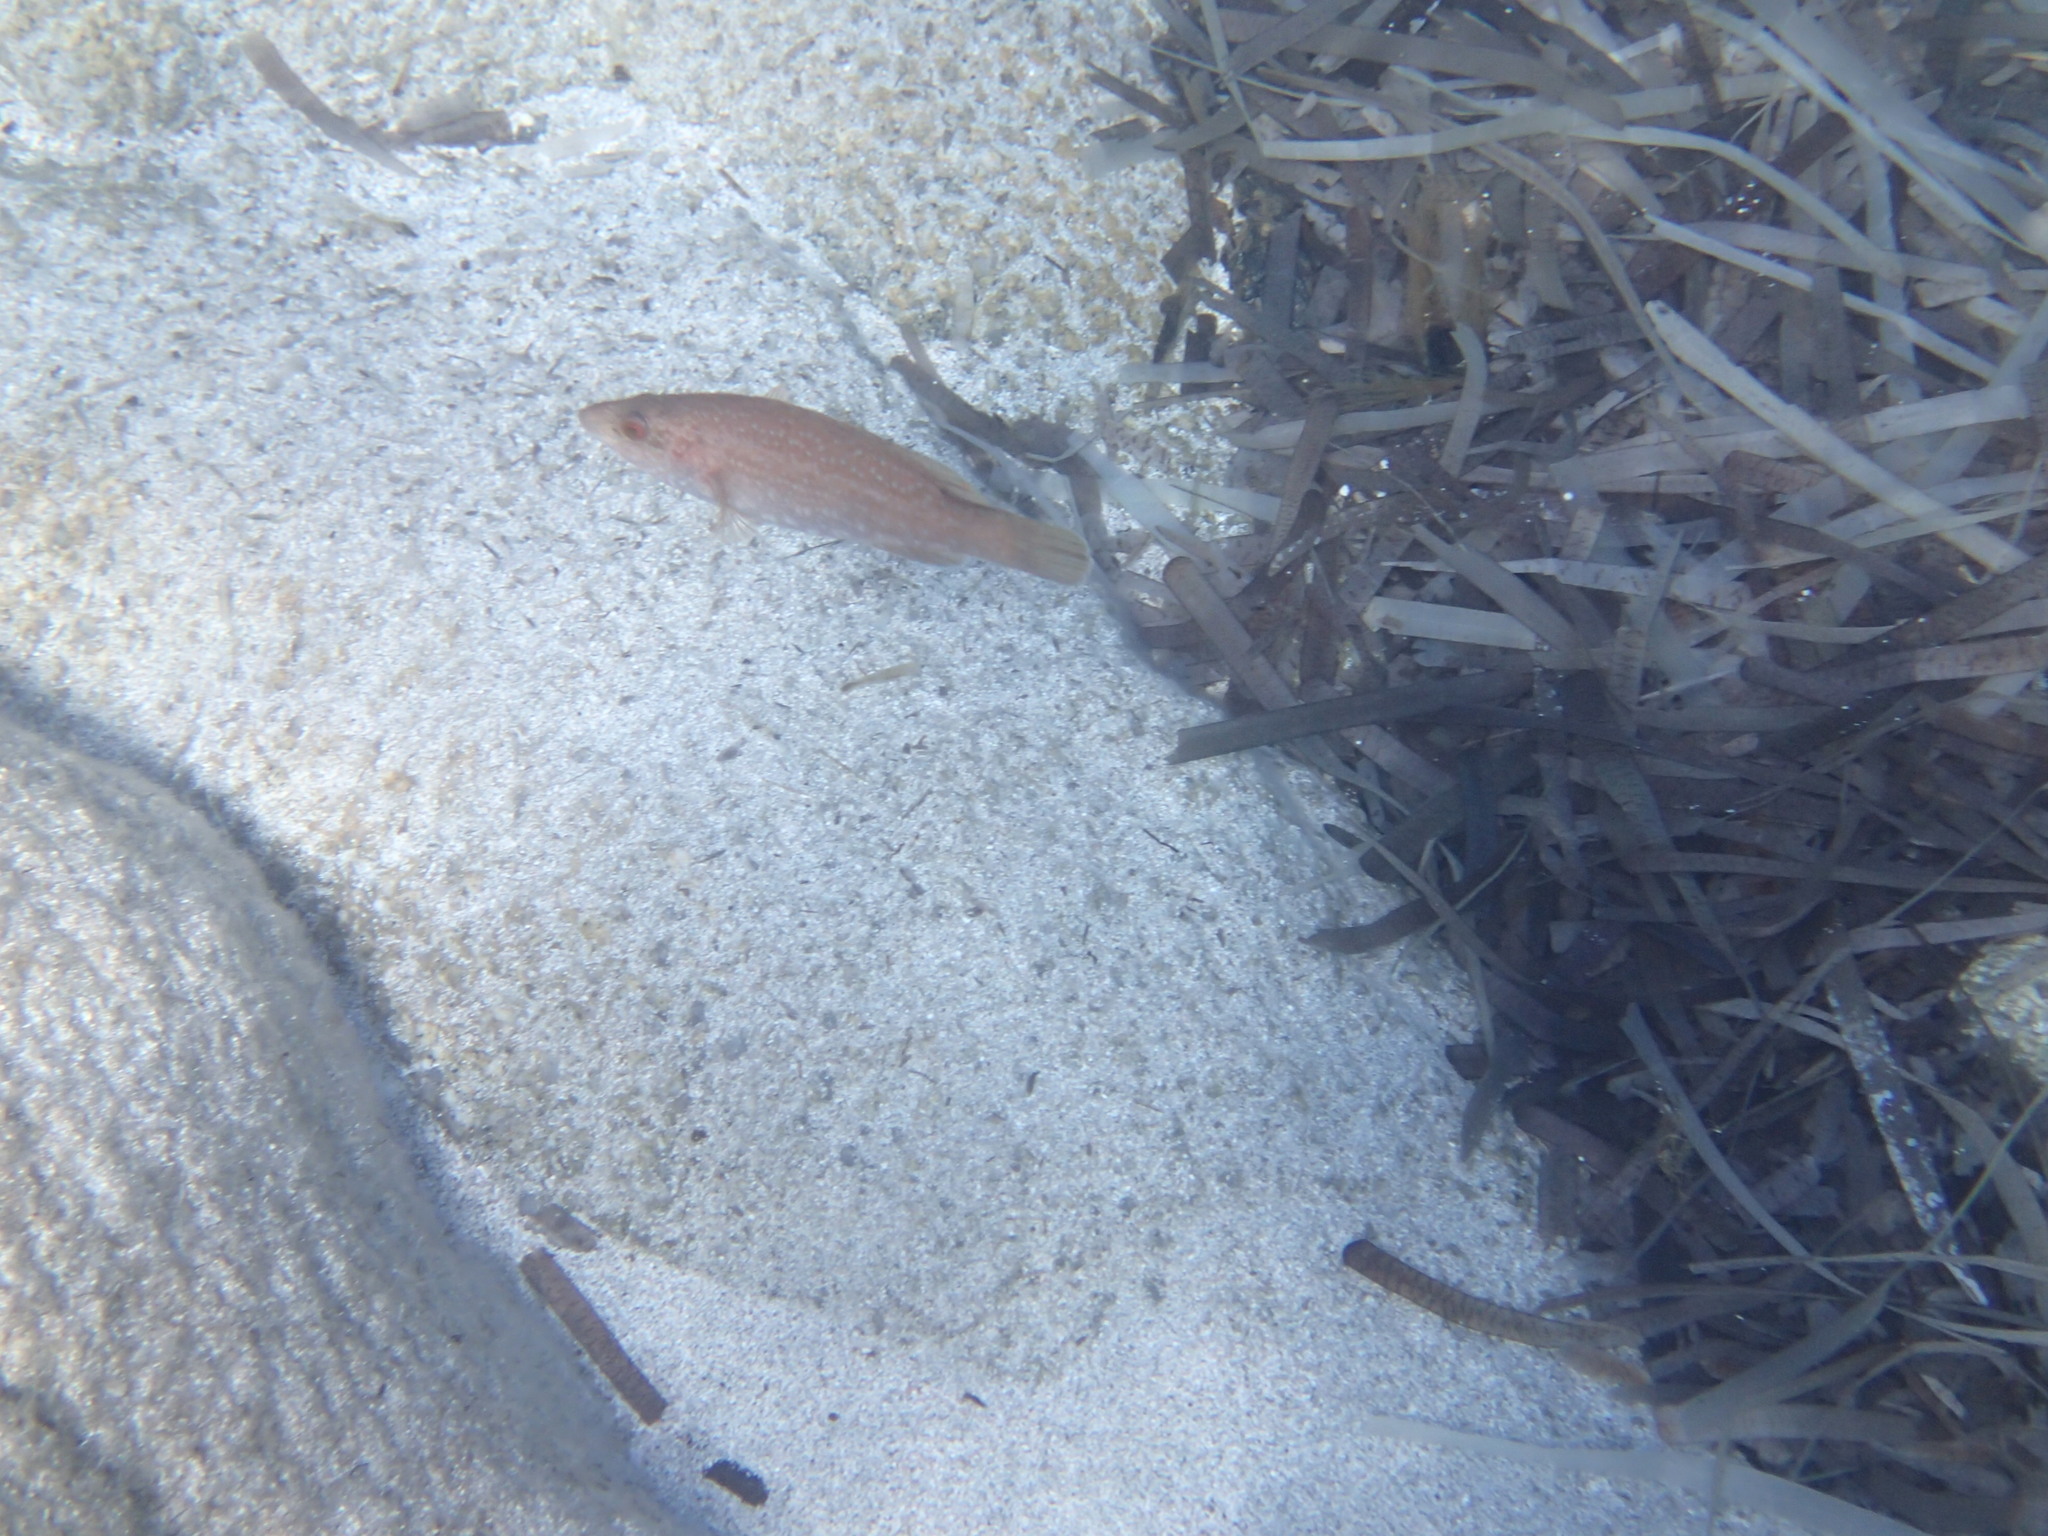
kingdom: Animalia
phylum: Chordata
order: Perciformes
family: Labridae
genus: Labrus
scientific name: Labrus viridis
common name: Green wrasse
